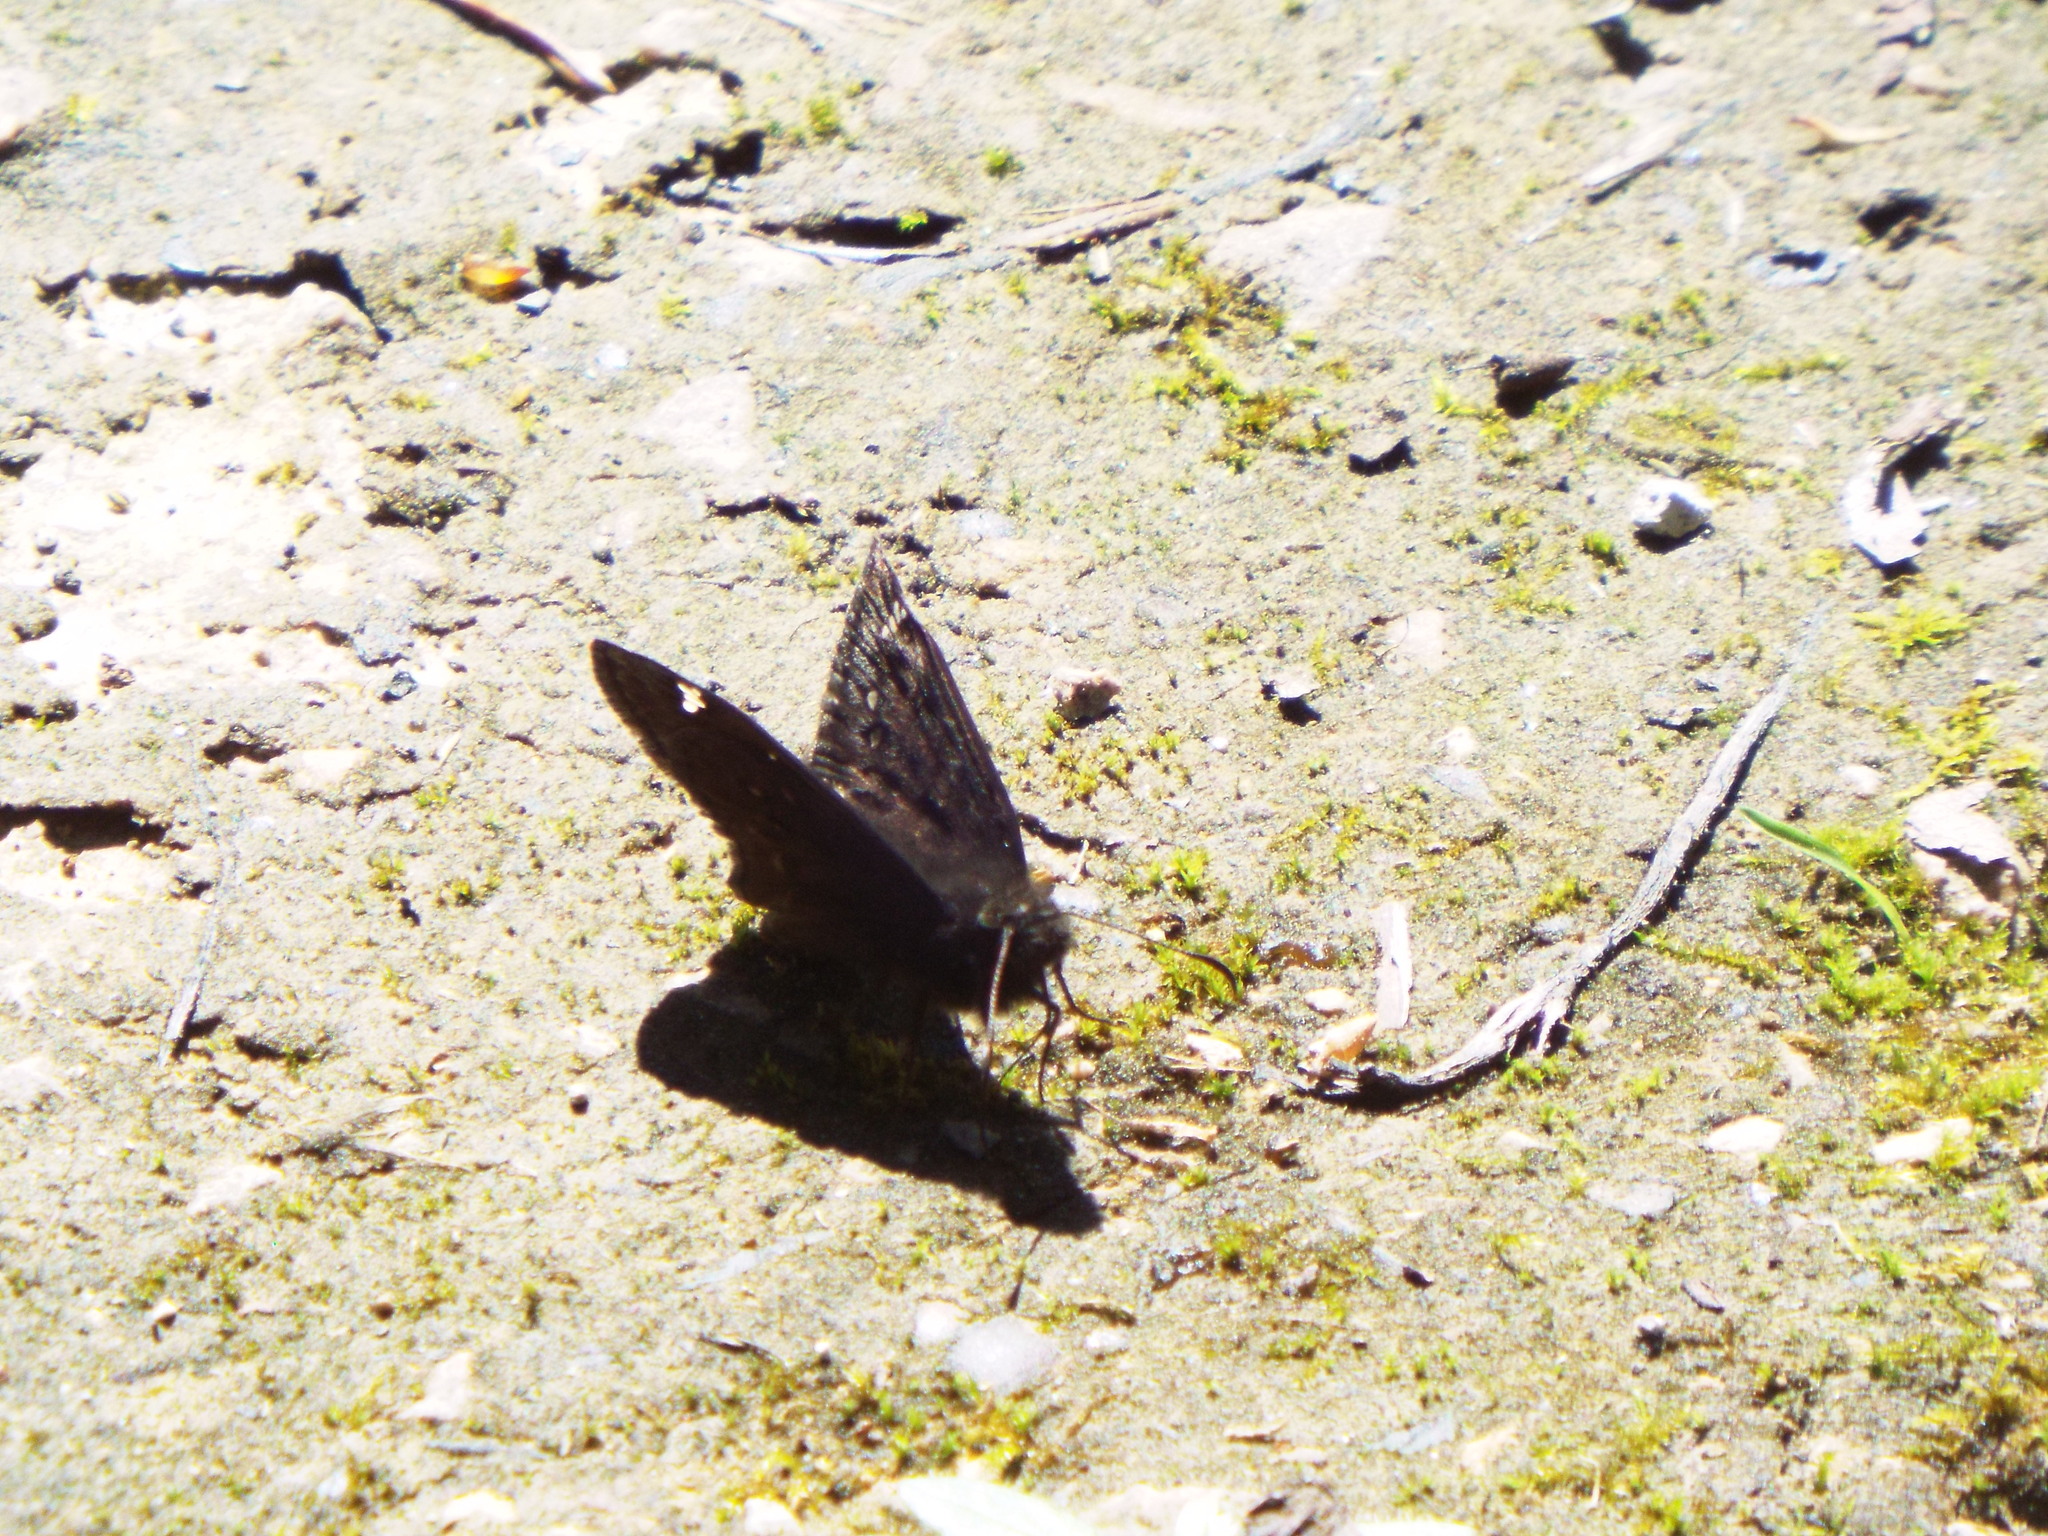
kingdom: Animalia
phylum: Arthropoda
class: Insecta
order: Lepidoptera
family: Hesperiidae
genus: Erynnis
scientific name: Erynnis juvenalis
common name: Juvenal's duskywing
